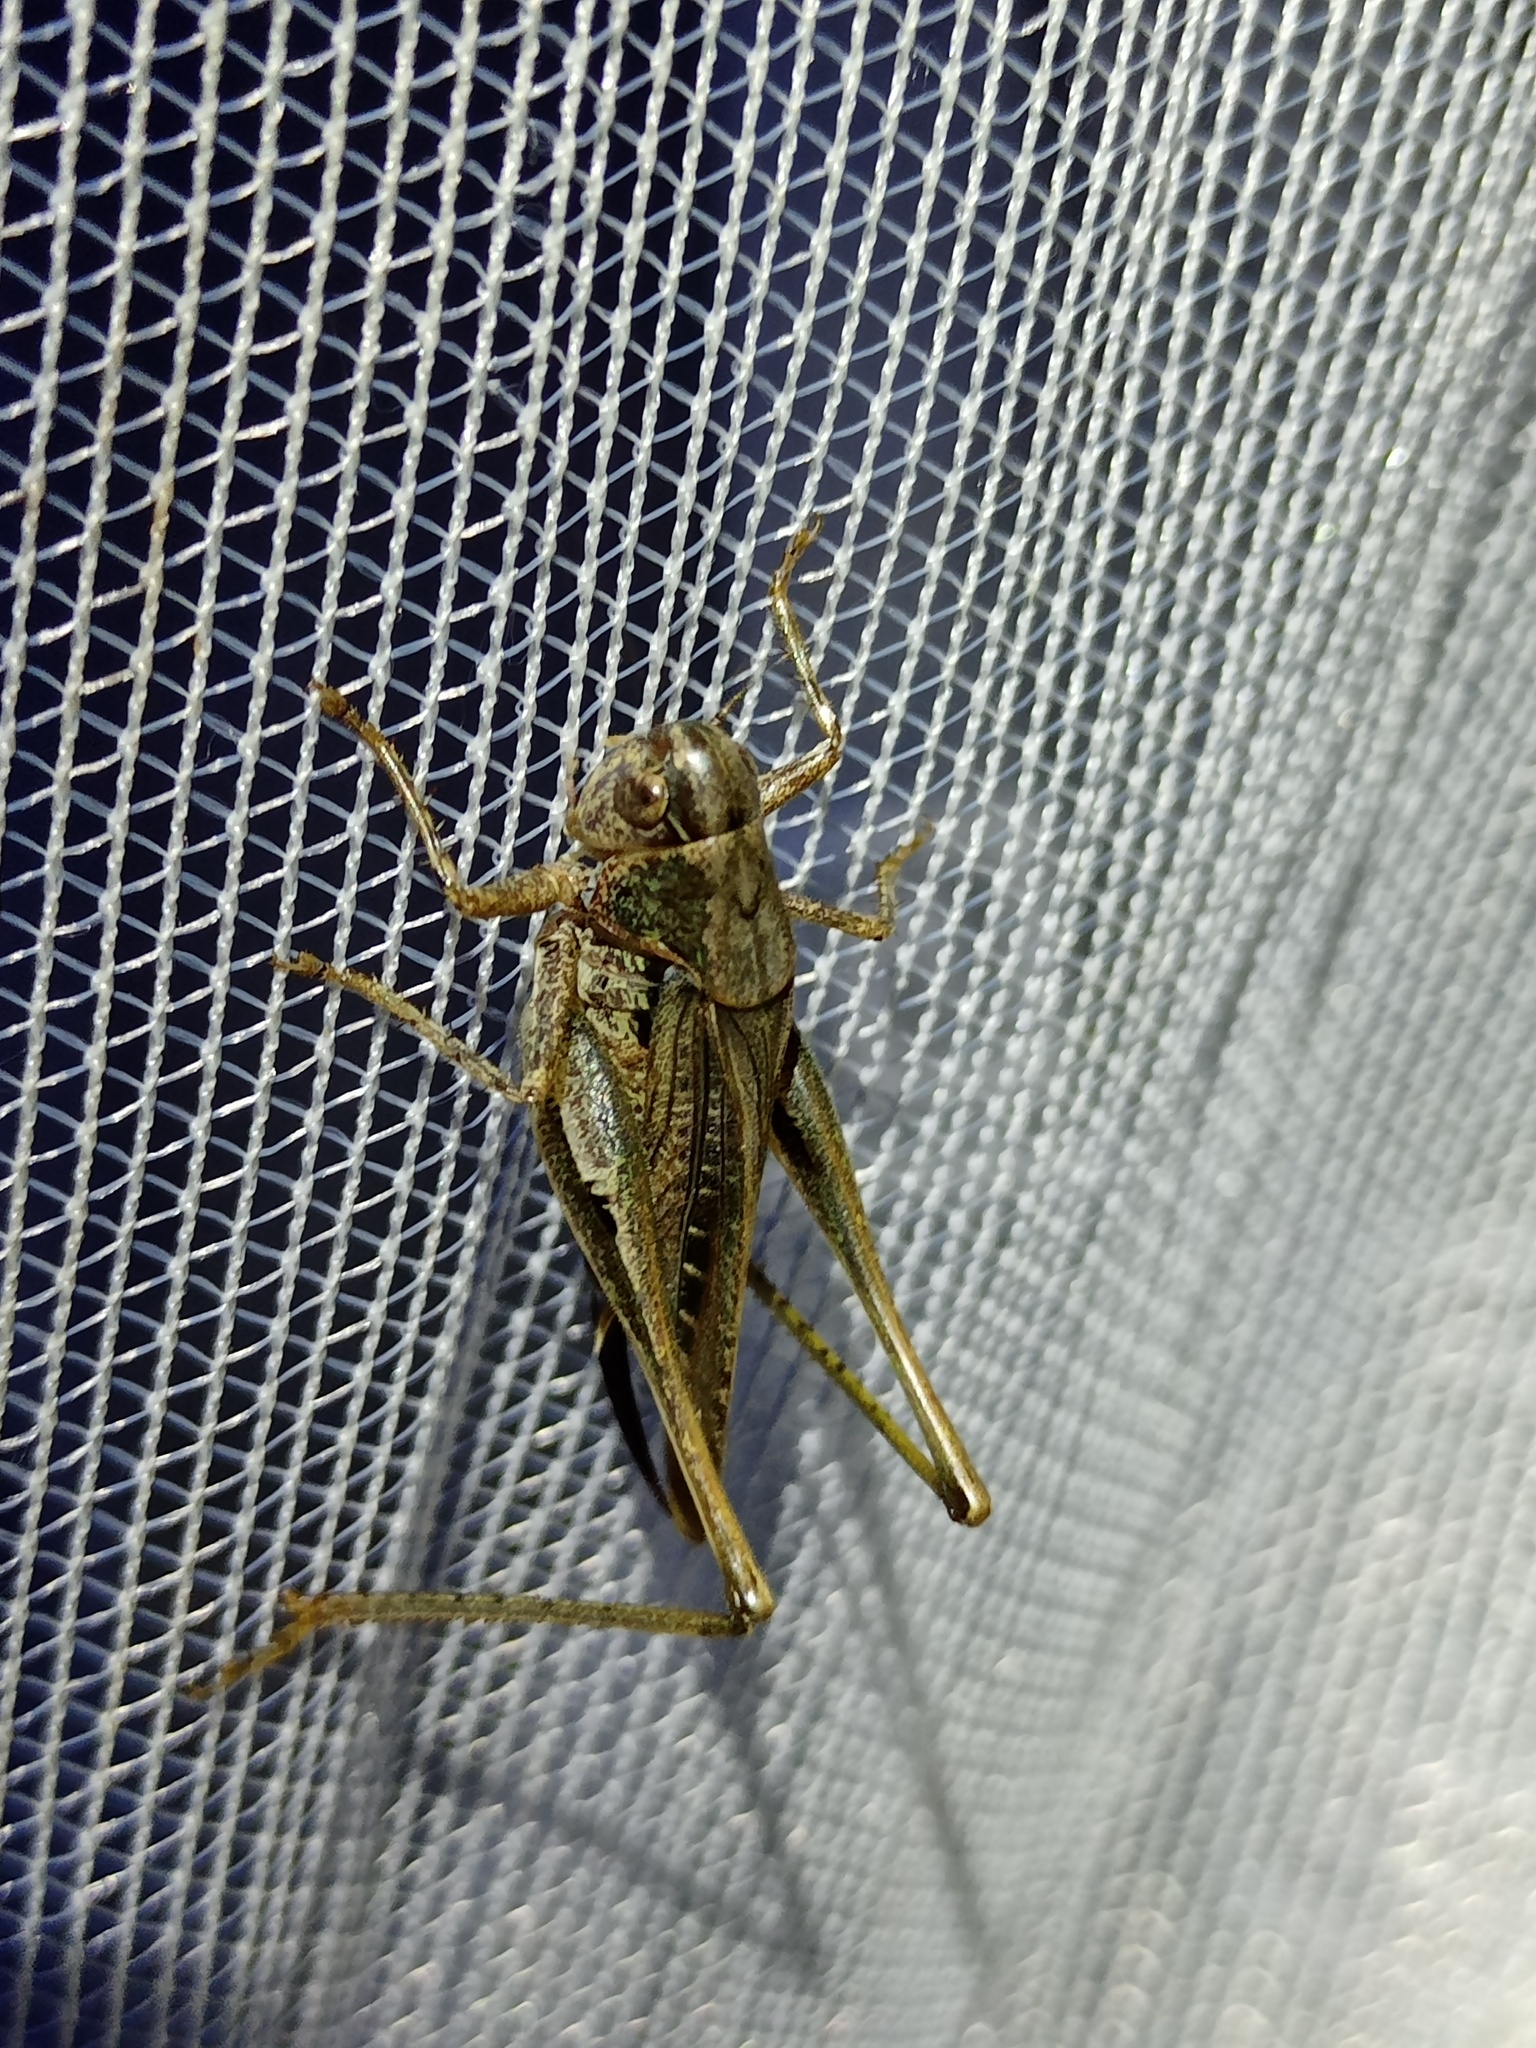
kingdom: Animalia
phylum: Arthropoda
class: Insecta
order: Orthoptera
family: Tettigoniidae
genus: Platycleis
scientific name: Platycleis albopunctata
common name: Grey bush-cricket
